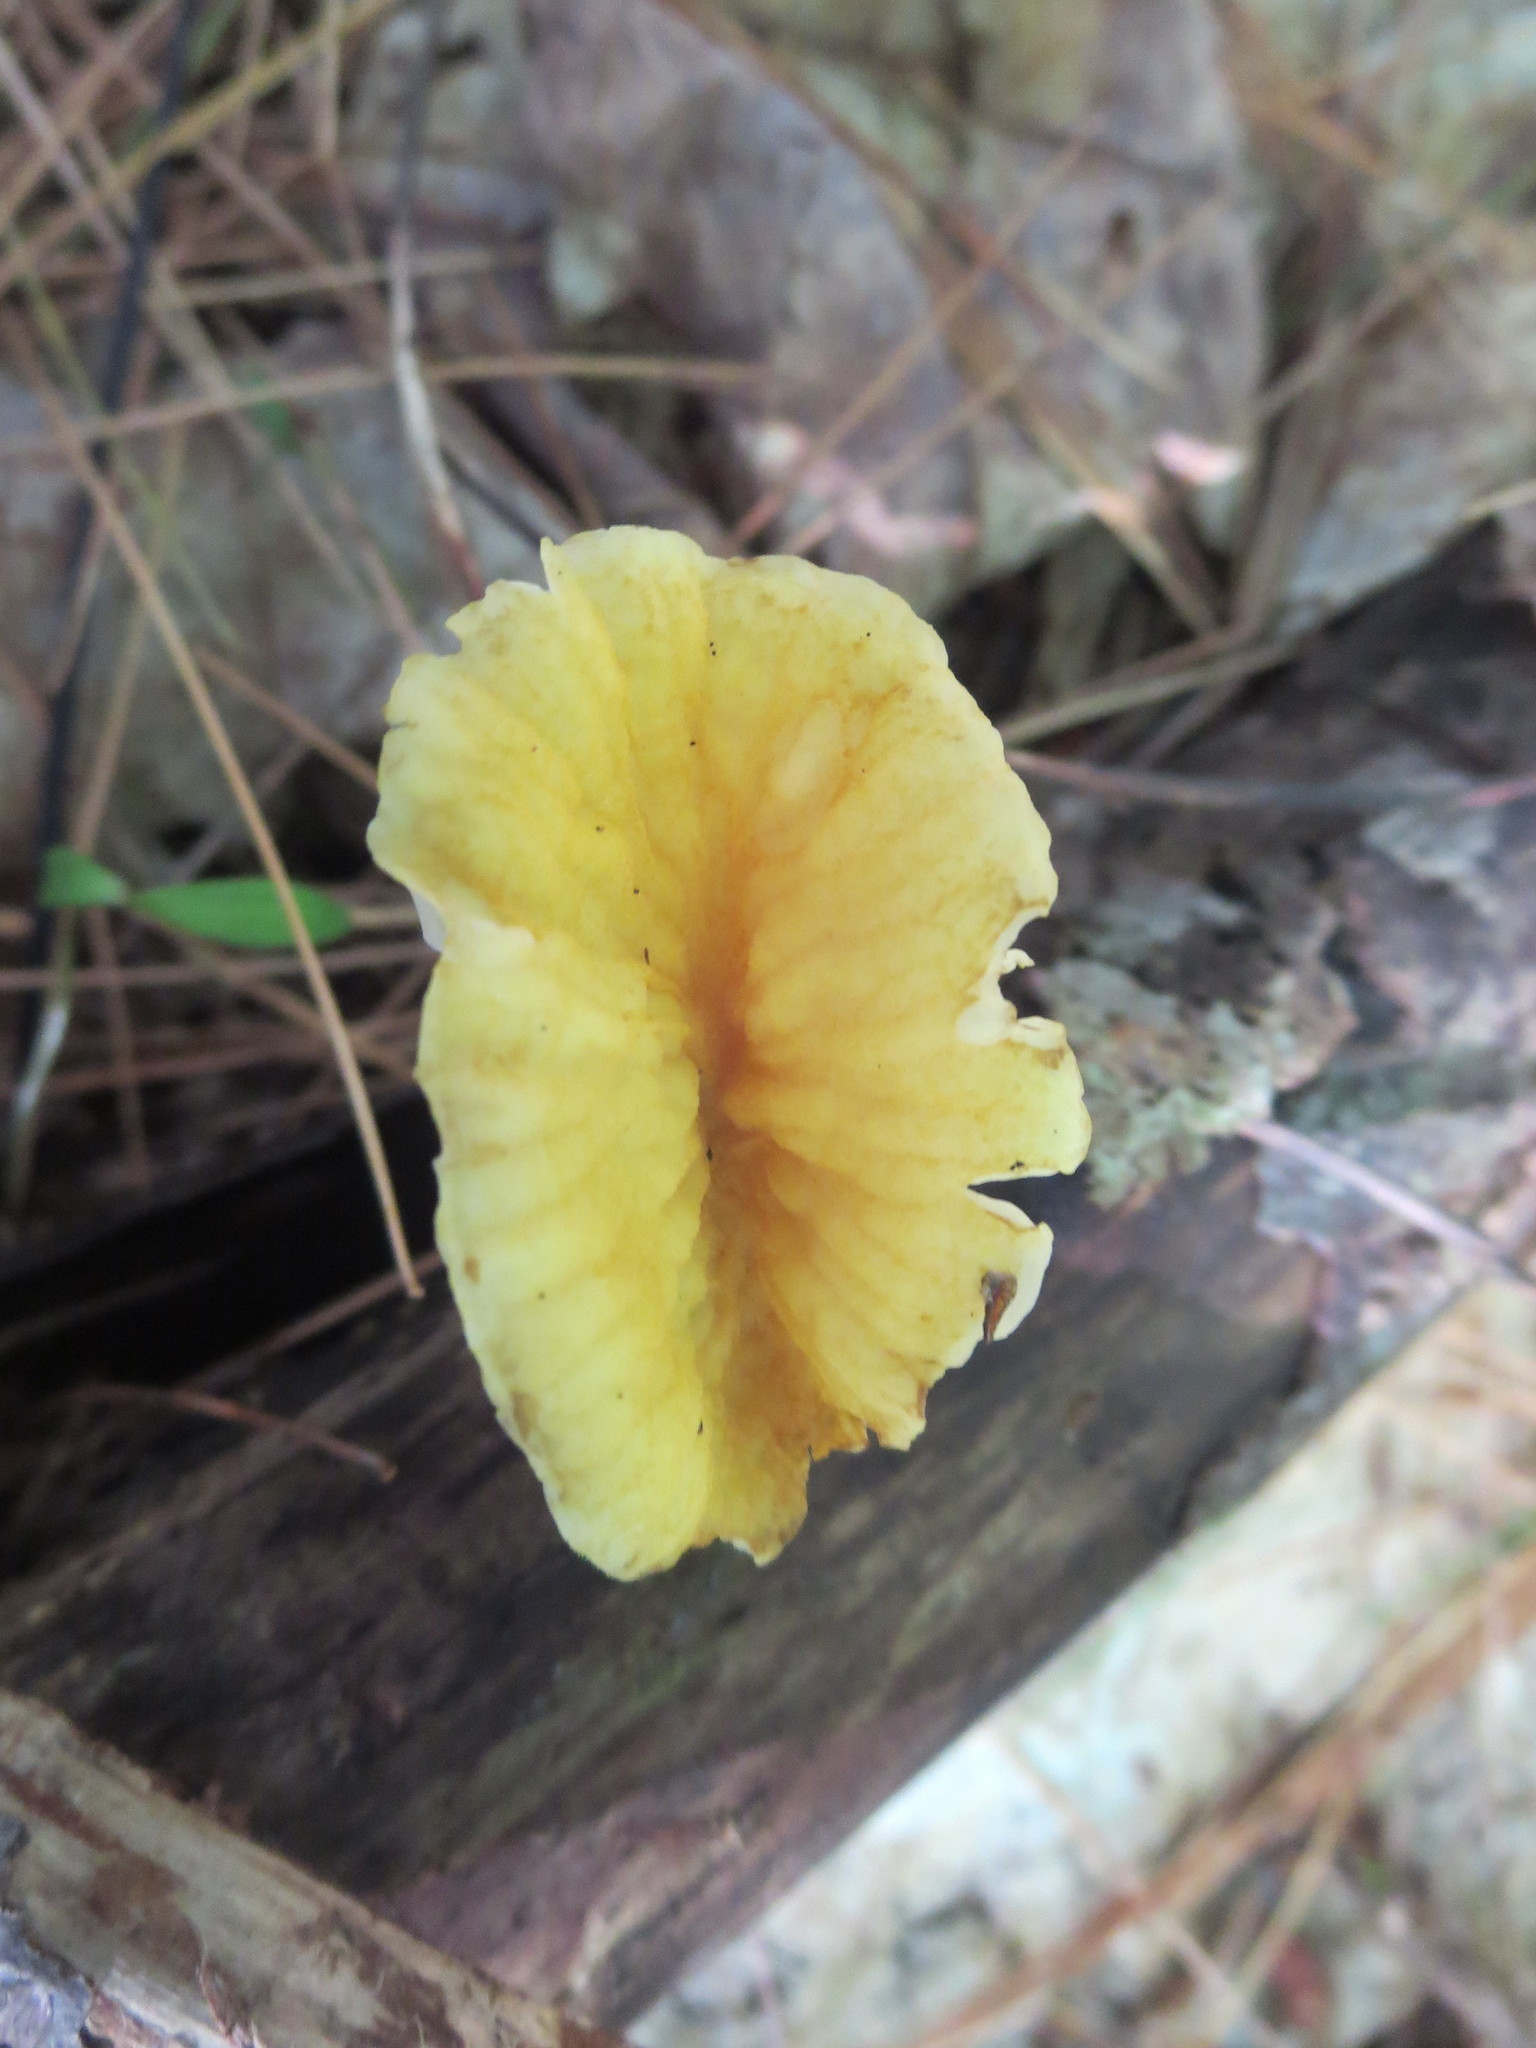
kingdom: Fungi
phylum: Basidiomycota
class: Agaricomycetes
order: Agaricales
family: Physalacriaceae
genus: Cyptotrama
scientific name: Cyptotrama chrysopepla
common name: Golden coincap
